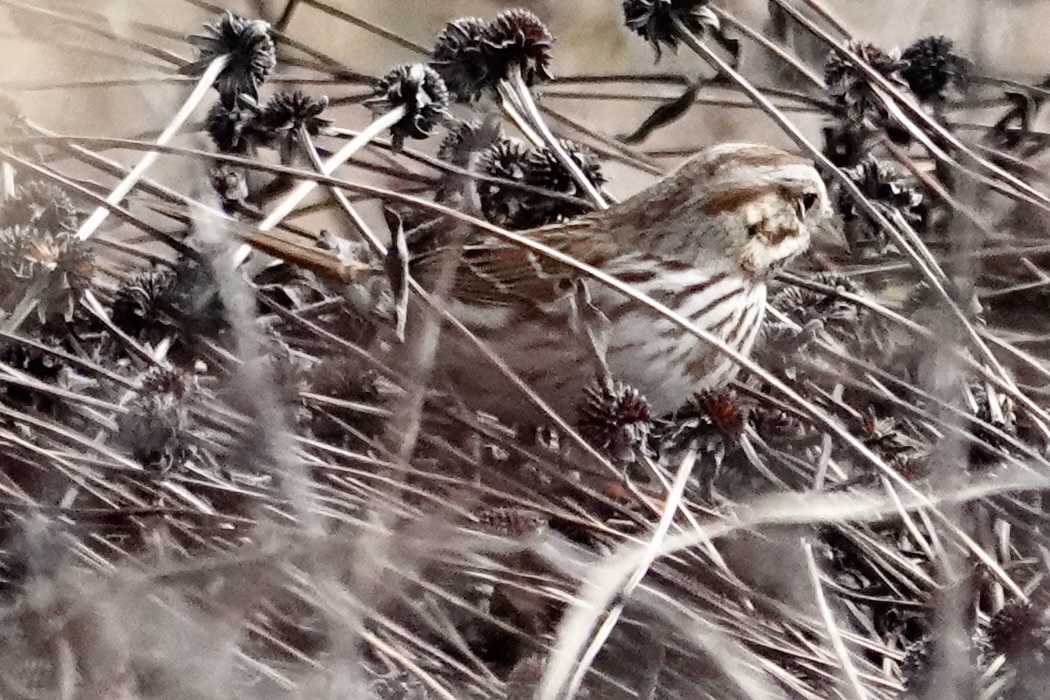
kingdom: Animalia
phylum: Chordata
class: Aves
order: Passeriformes
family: Passerellidae
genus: Melospiza
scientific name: Melospiza melodia
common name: Song sparrow
